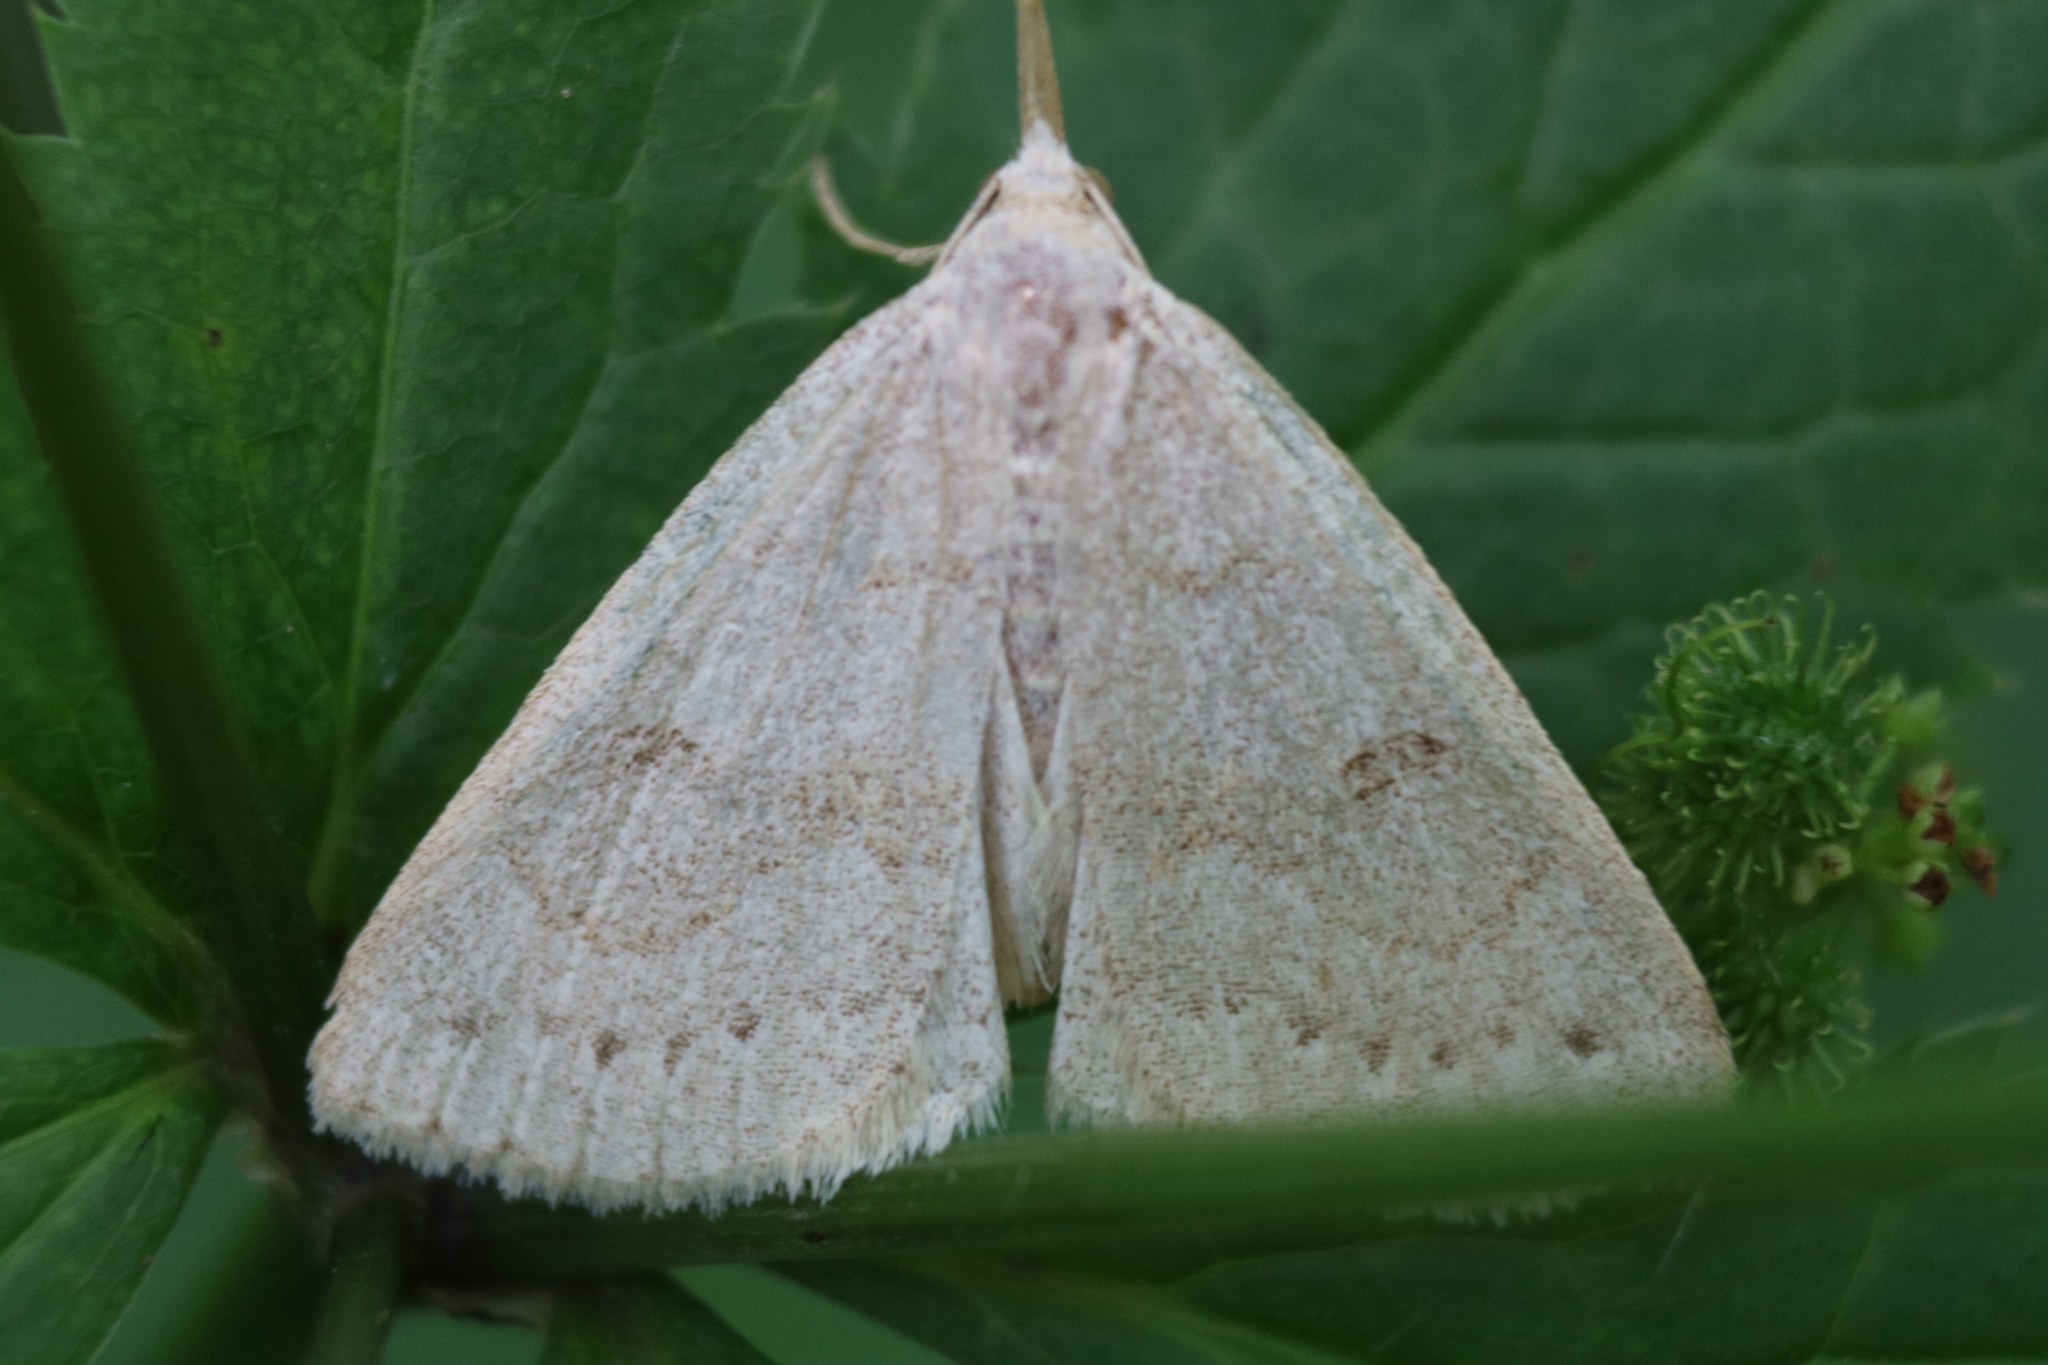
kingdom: Animalia
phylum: Arthropoda
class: Insecta
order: Lepidoptera
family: Erebidae
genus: Macrochilo
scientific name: Macrochilo morbidalis
